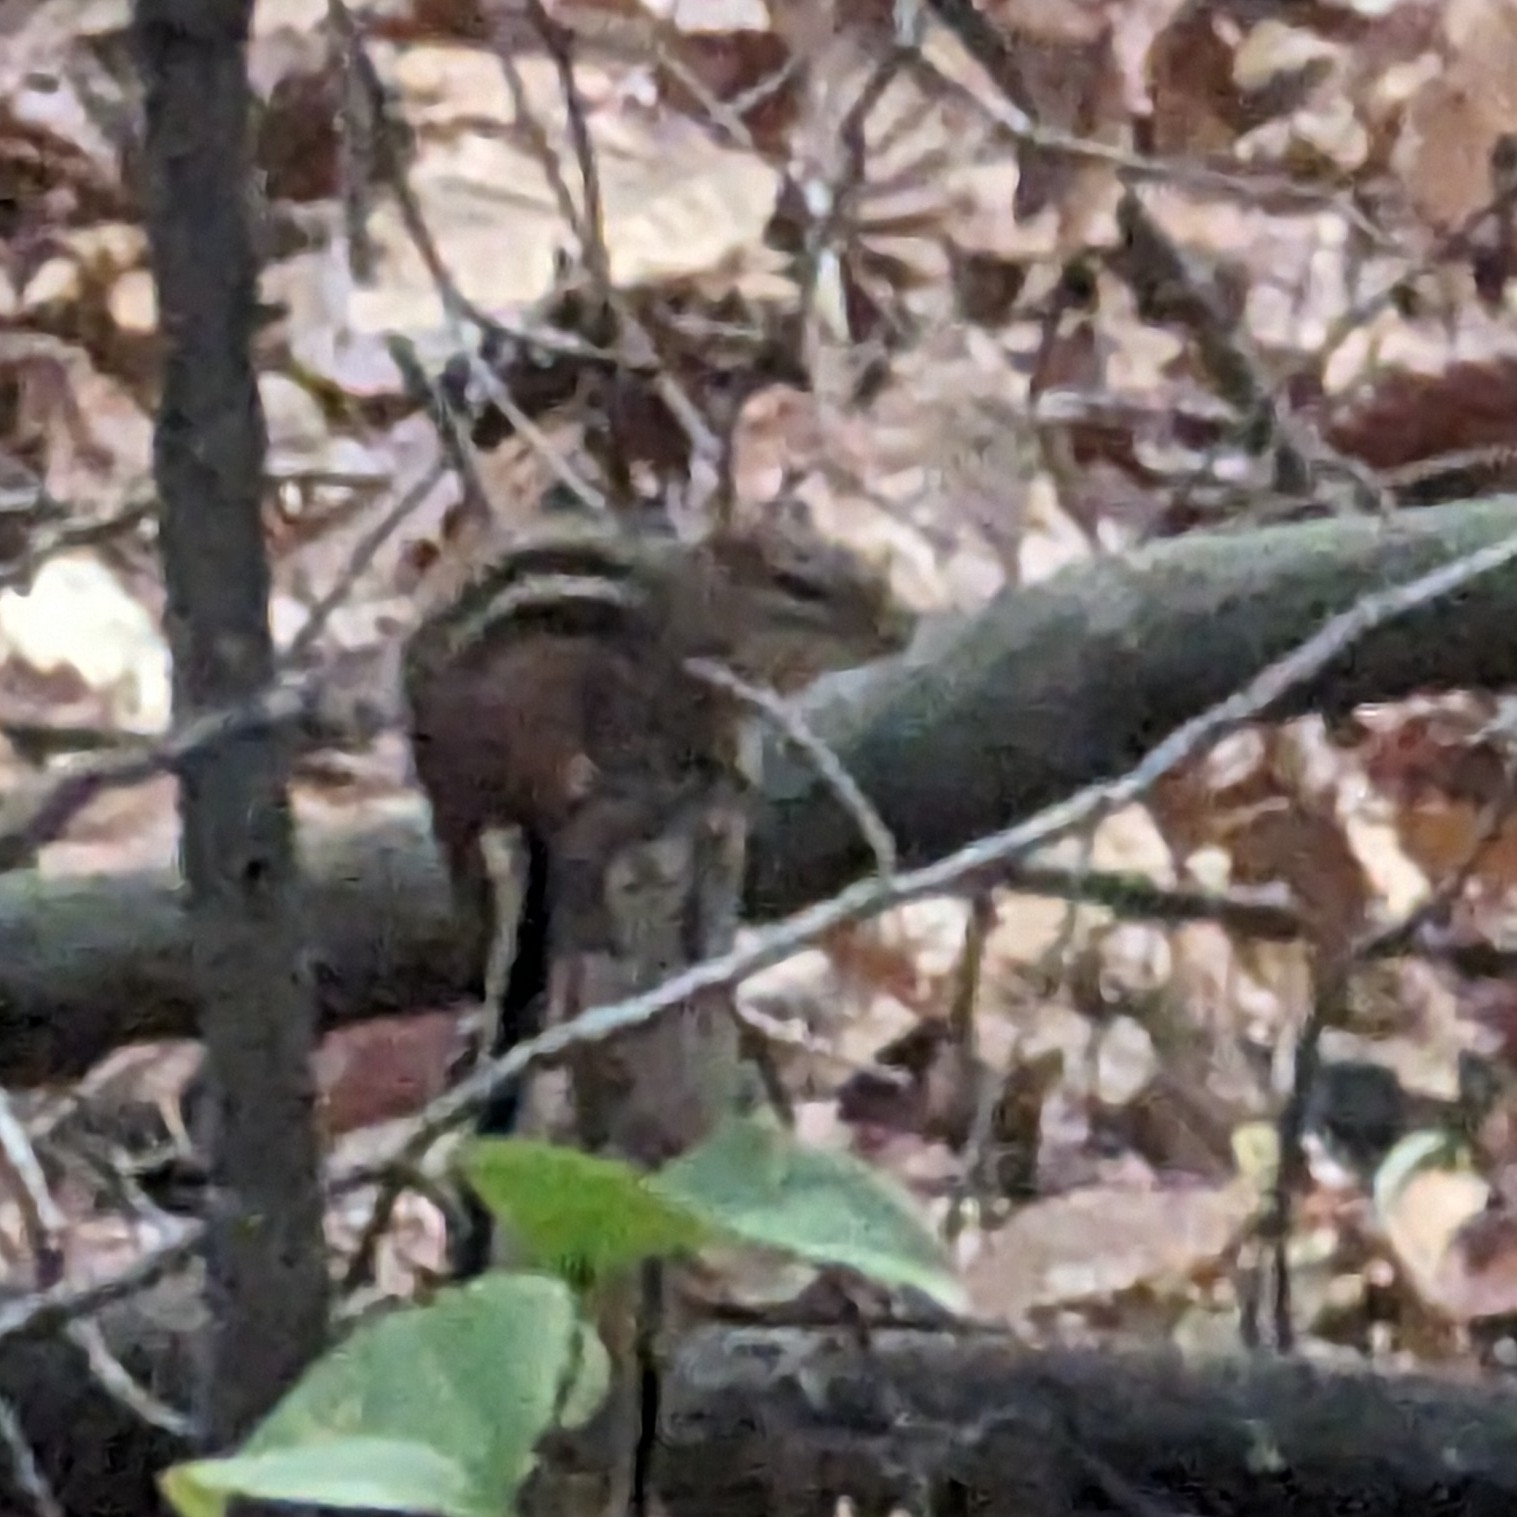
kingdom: Animalia
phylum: Chordata
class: Mammalia
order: Rodentia
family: Sciuridae
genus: Tamias
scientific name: Tamias striatus
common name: Eastern chipmunk
